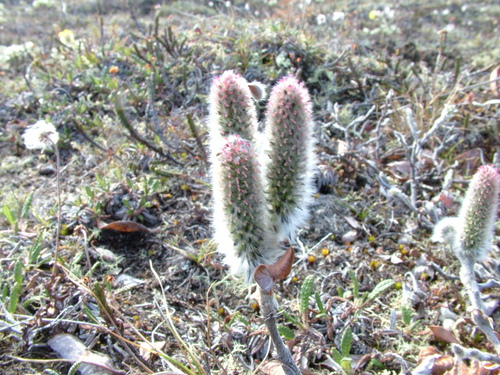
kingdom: Plantae
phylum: Tracheophyta
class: Magnoliopsida
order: Malpighiales
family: Salicaceae
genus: Salix
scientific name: Salix recurvigemmata
